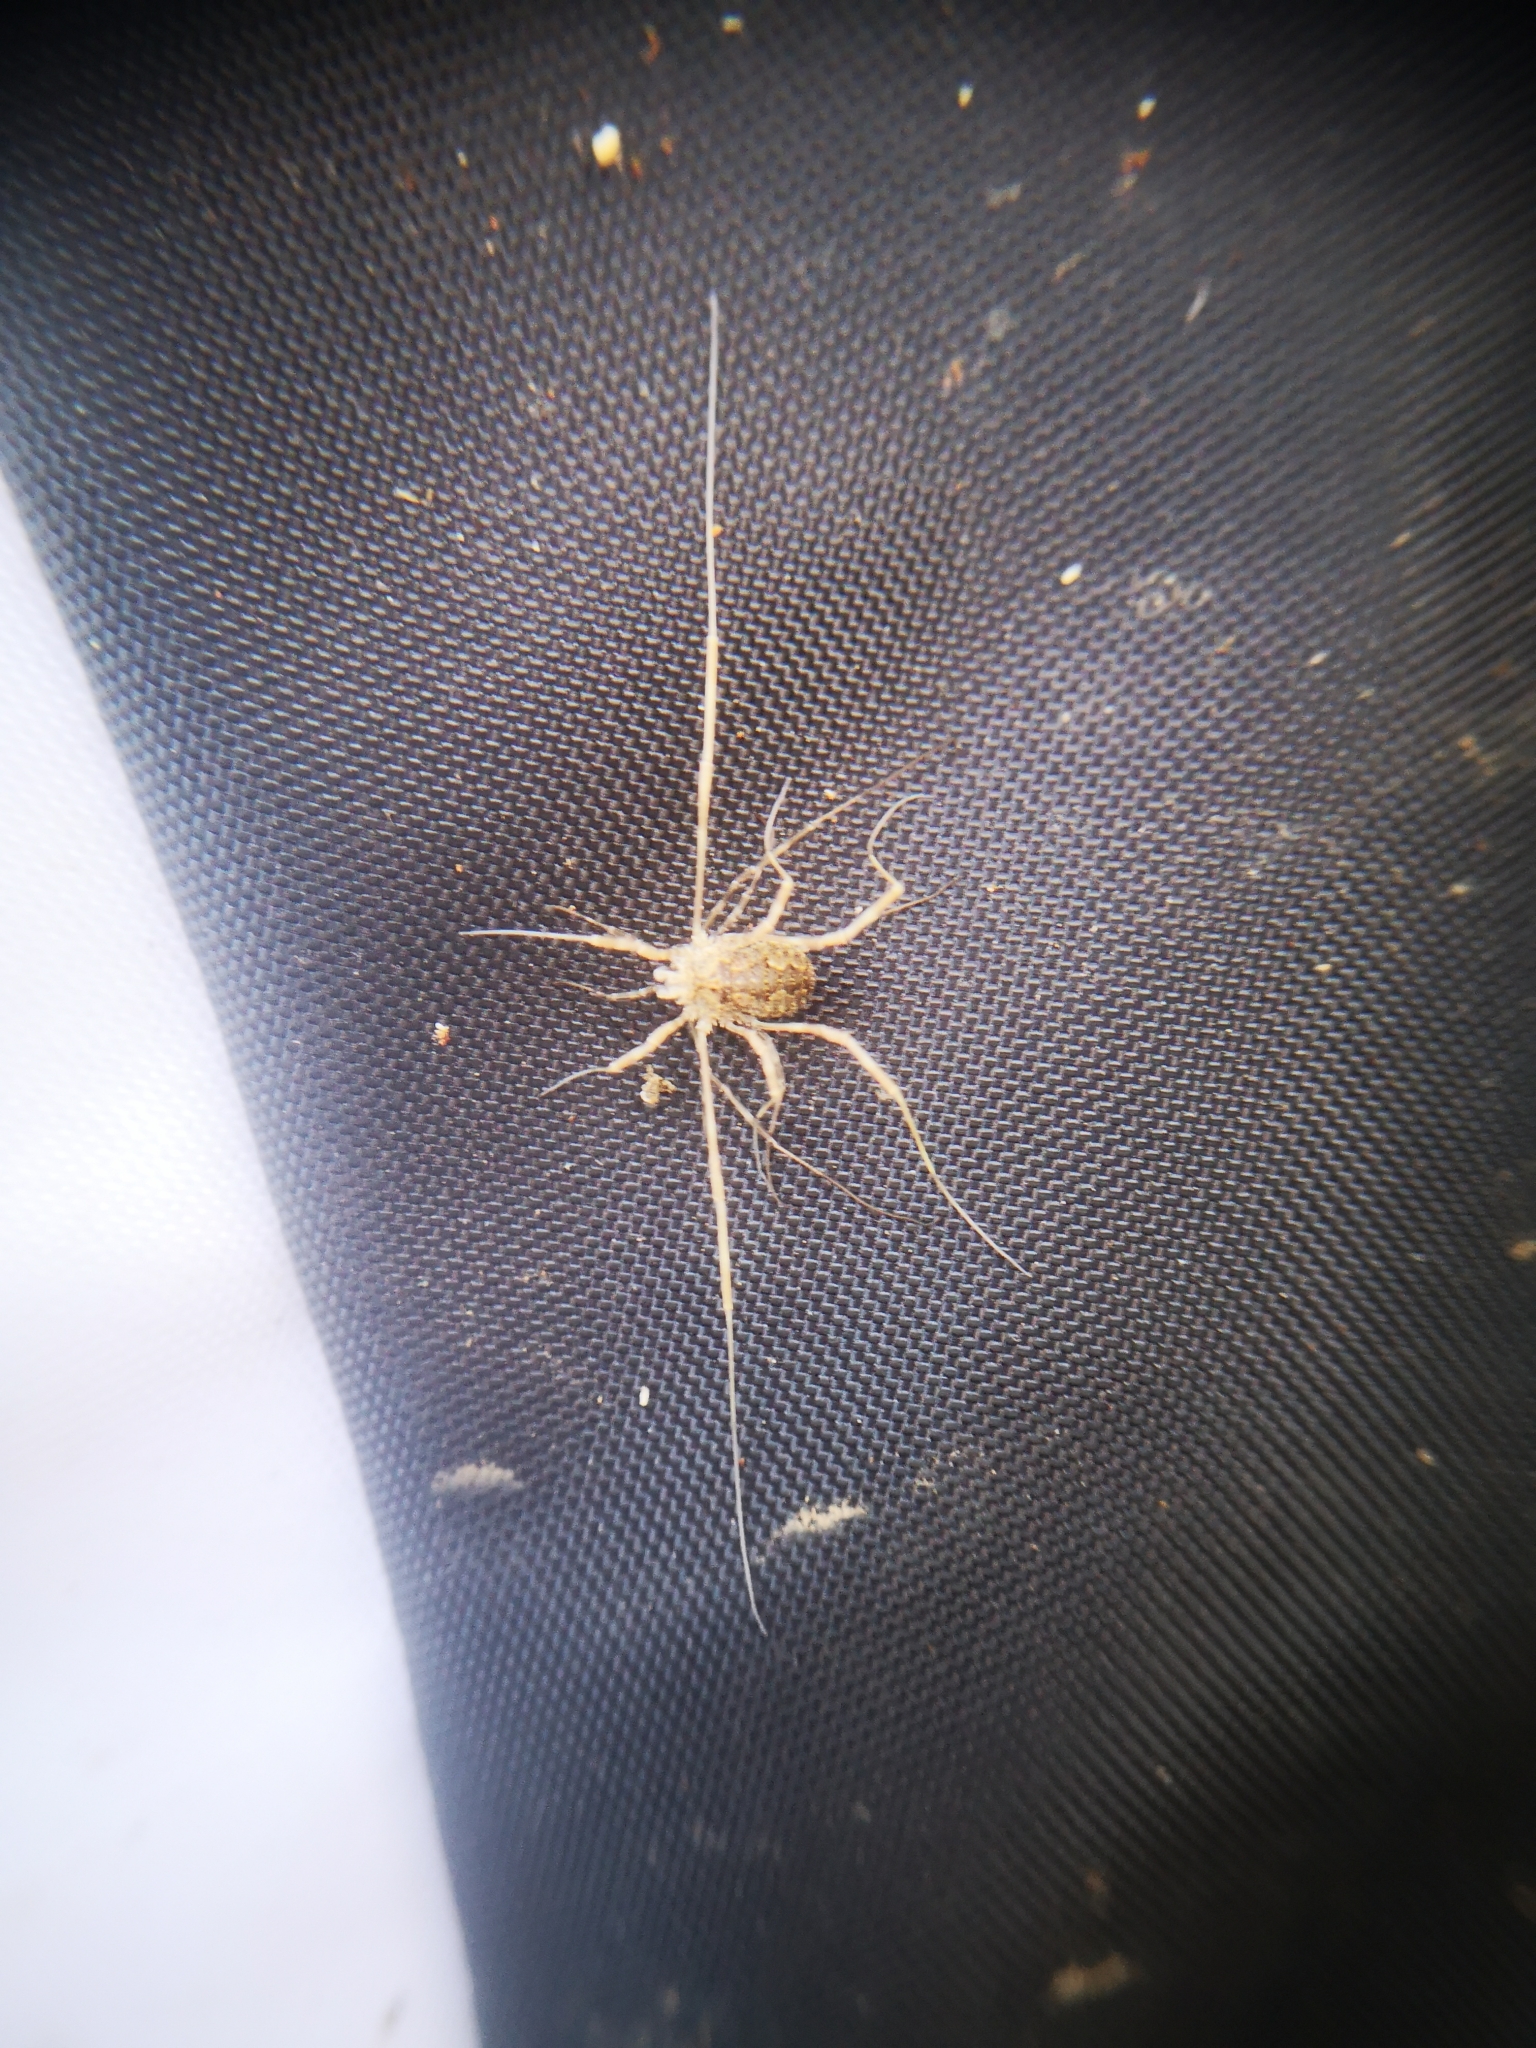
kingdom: Animalia
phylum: Arthropoda
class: Arachnida
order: Opiliones
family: Phalangiidae
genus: Odiellus
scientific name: Odiellus pictus
